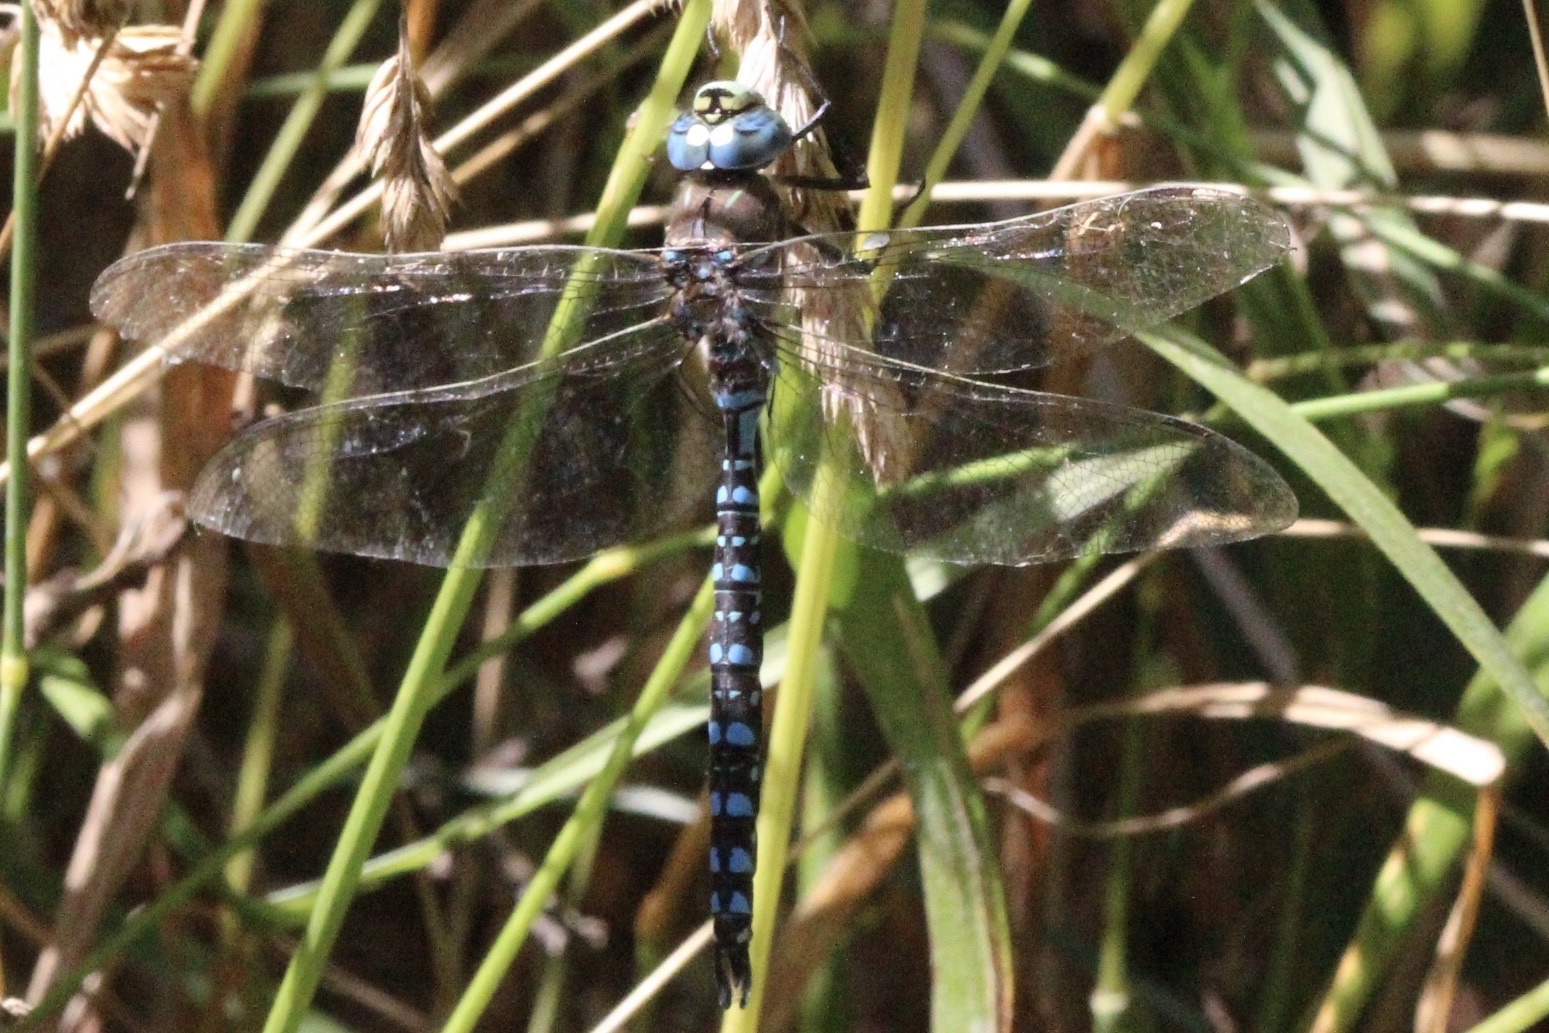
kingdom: Animalia
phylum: Arthropoda
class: Insecta
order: Odonata
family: Aeshnidae
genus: Aeshna
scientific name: Aeshna interrupta
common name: Variable darner
